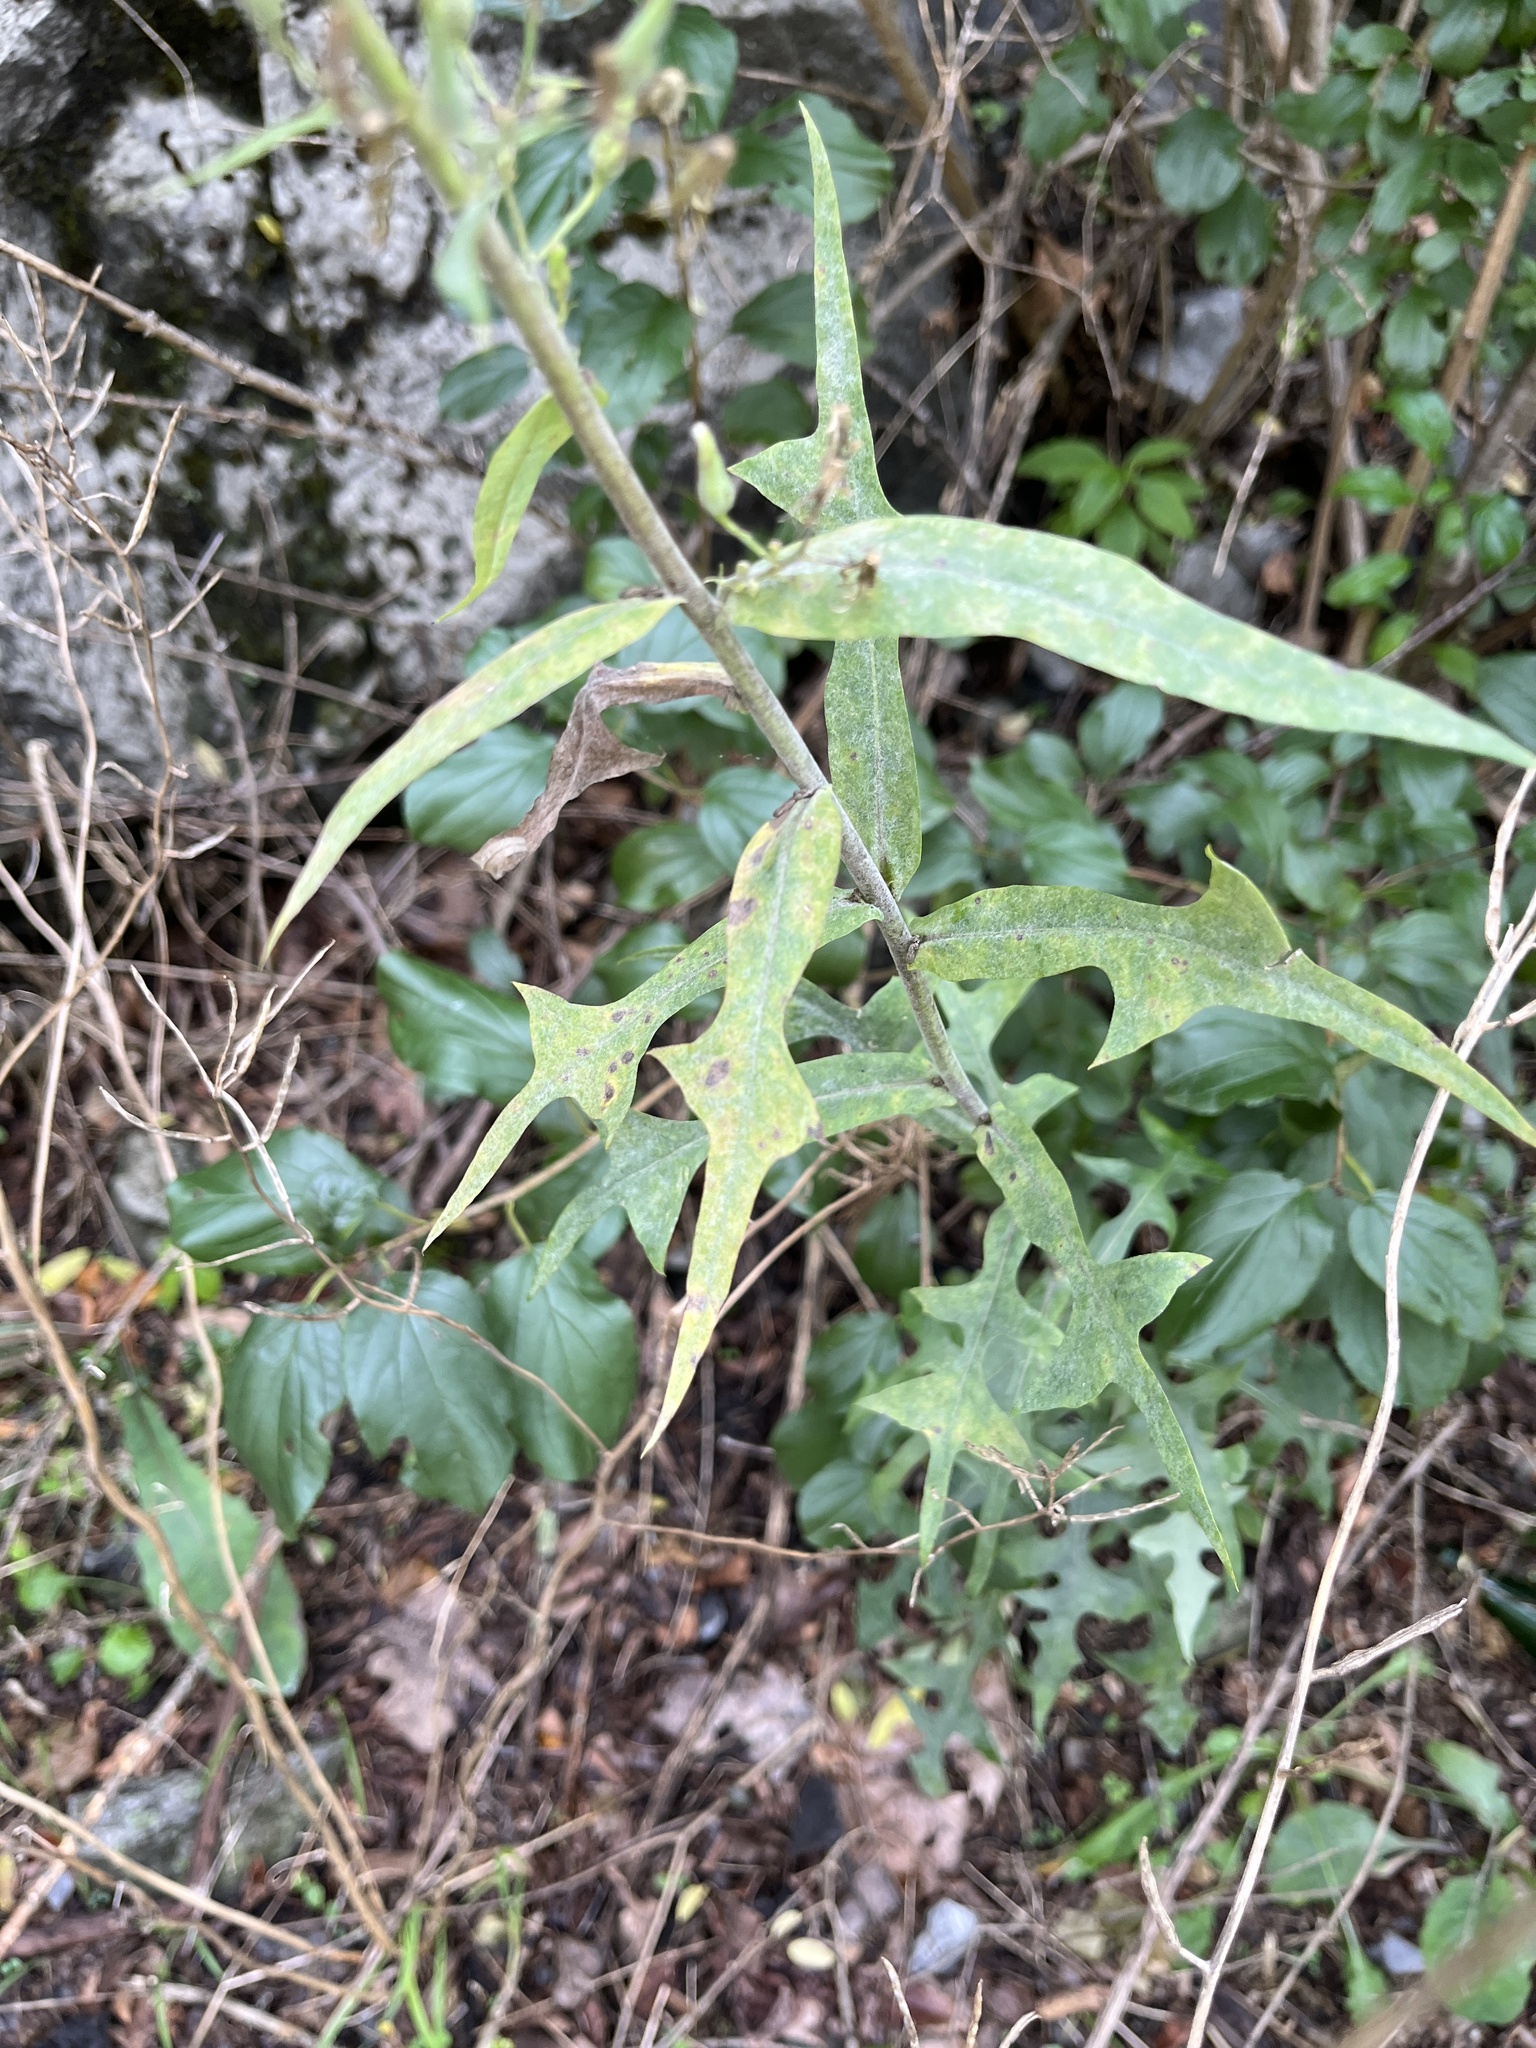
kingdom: Plantae
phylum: Tracheophyta
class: Magnoliopsida
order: Asterales
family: Asteraceae
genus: Lactuca
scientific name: Lactuca canadensis
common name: Canada lettuce
